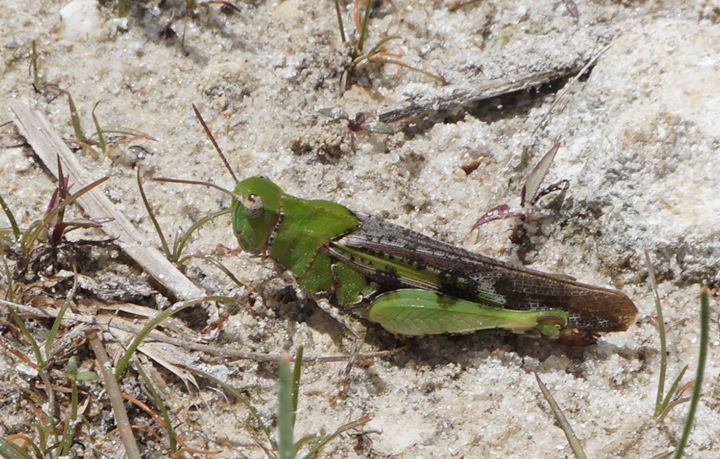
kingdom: Animalia
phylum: Arthropoda
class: Insecta
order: Orthoptera
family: Acrididae
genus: Chortophaga
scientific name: Chortophaga australior
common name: Southern green-striped grasshopper
